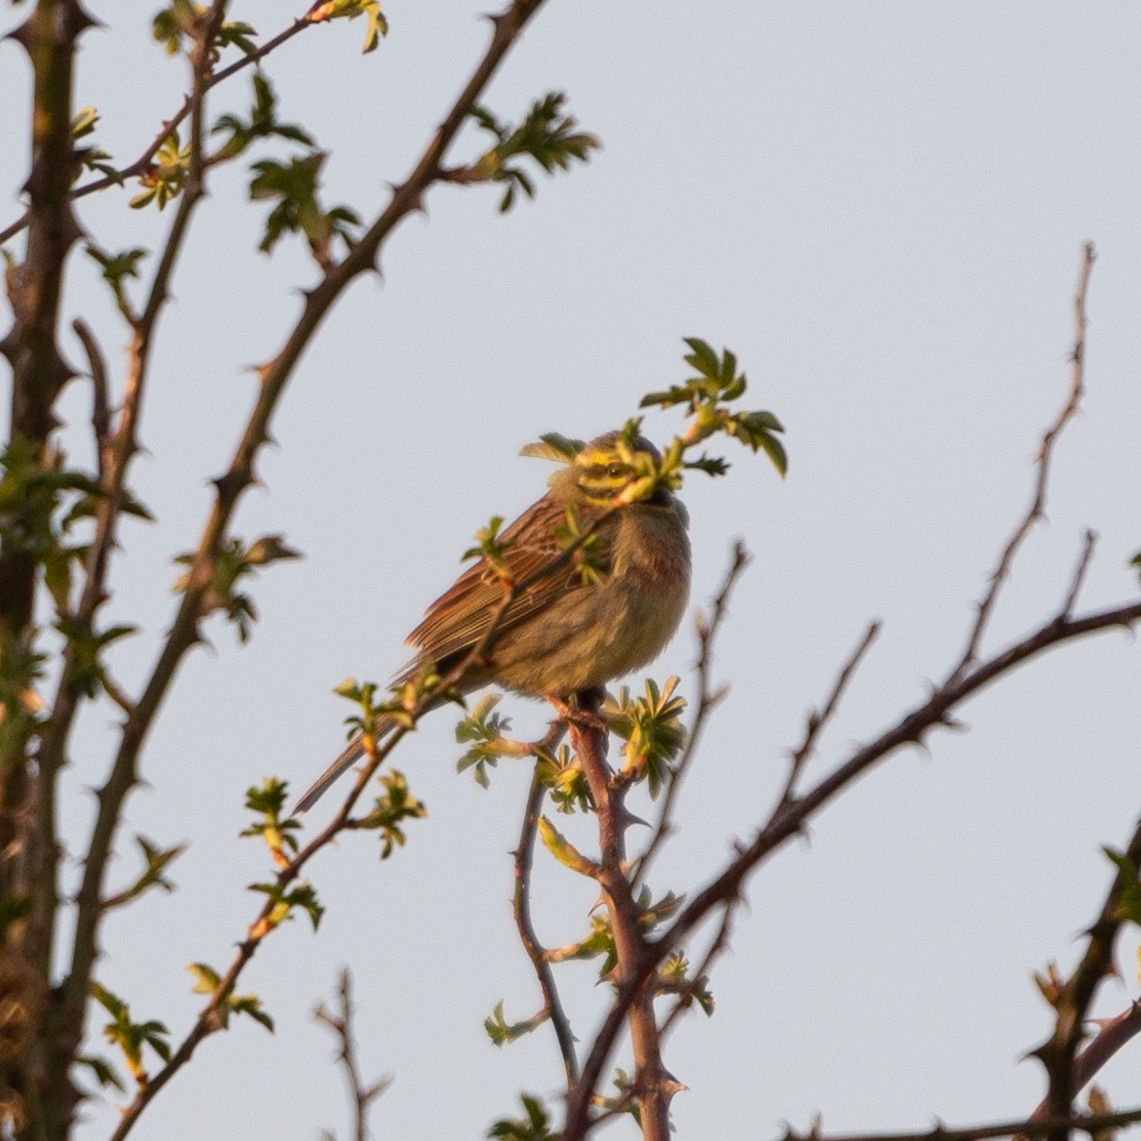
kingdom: Animalia
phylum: Chordata
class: Aves
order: Passeriformes
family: Emberizidae
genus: Emberiza
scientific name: Emberiza cirlus
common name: Cirl bunting
